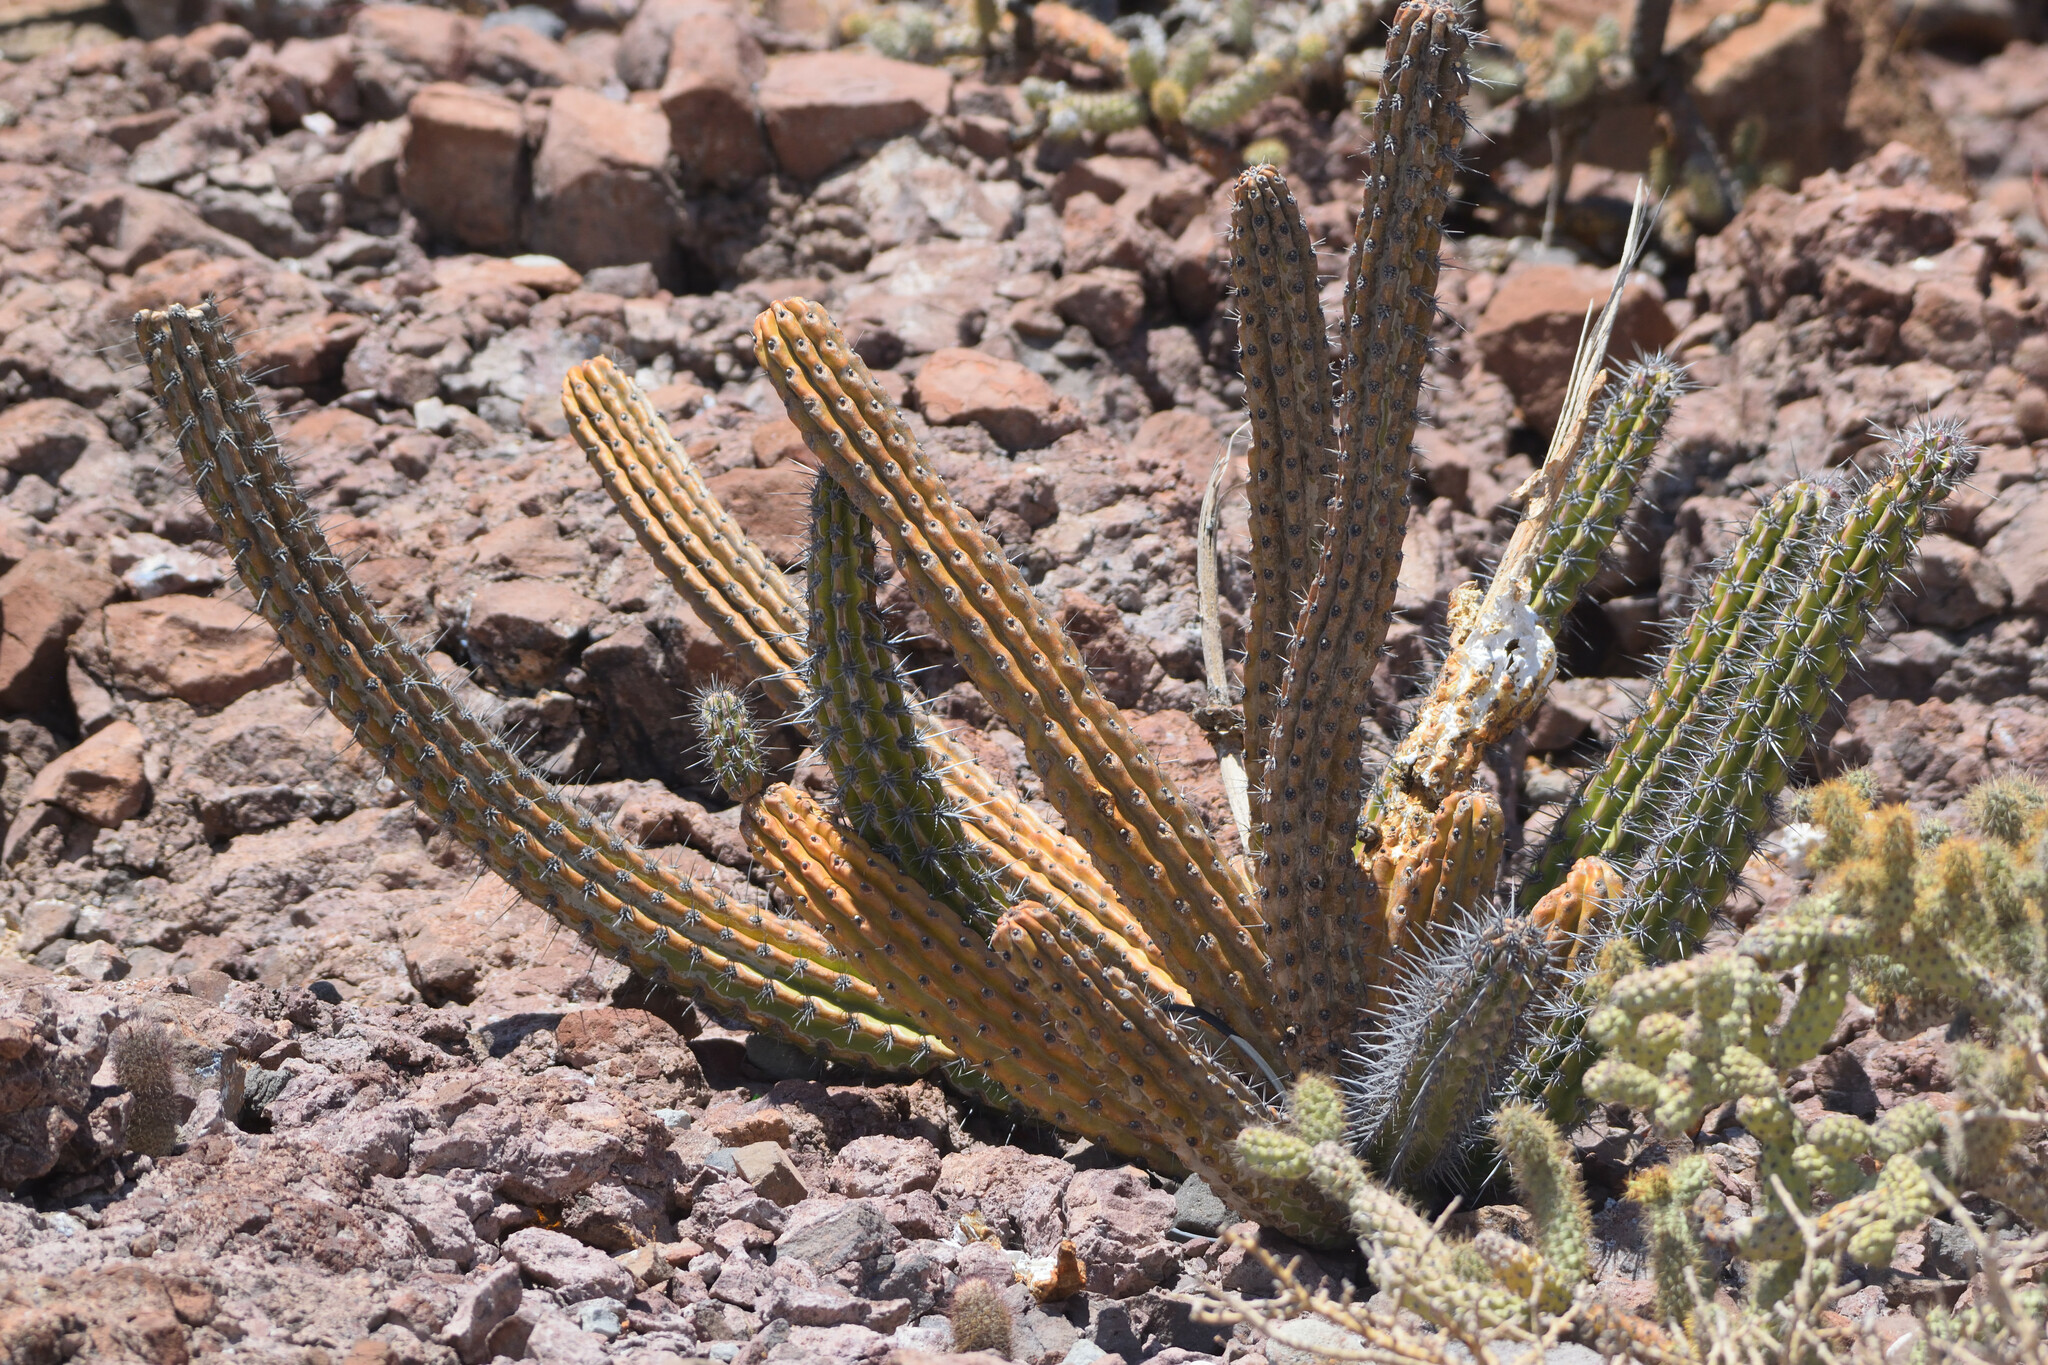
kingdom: Plantae
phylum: Tracheophyta
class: Magnoliopsida
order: Caryophyllales
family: Cactaceae
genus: Stenocereus
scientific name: Stenocereus gummosus
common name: Dagger cactus
